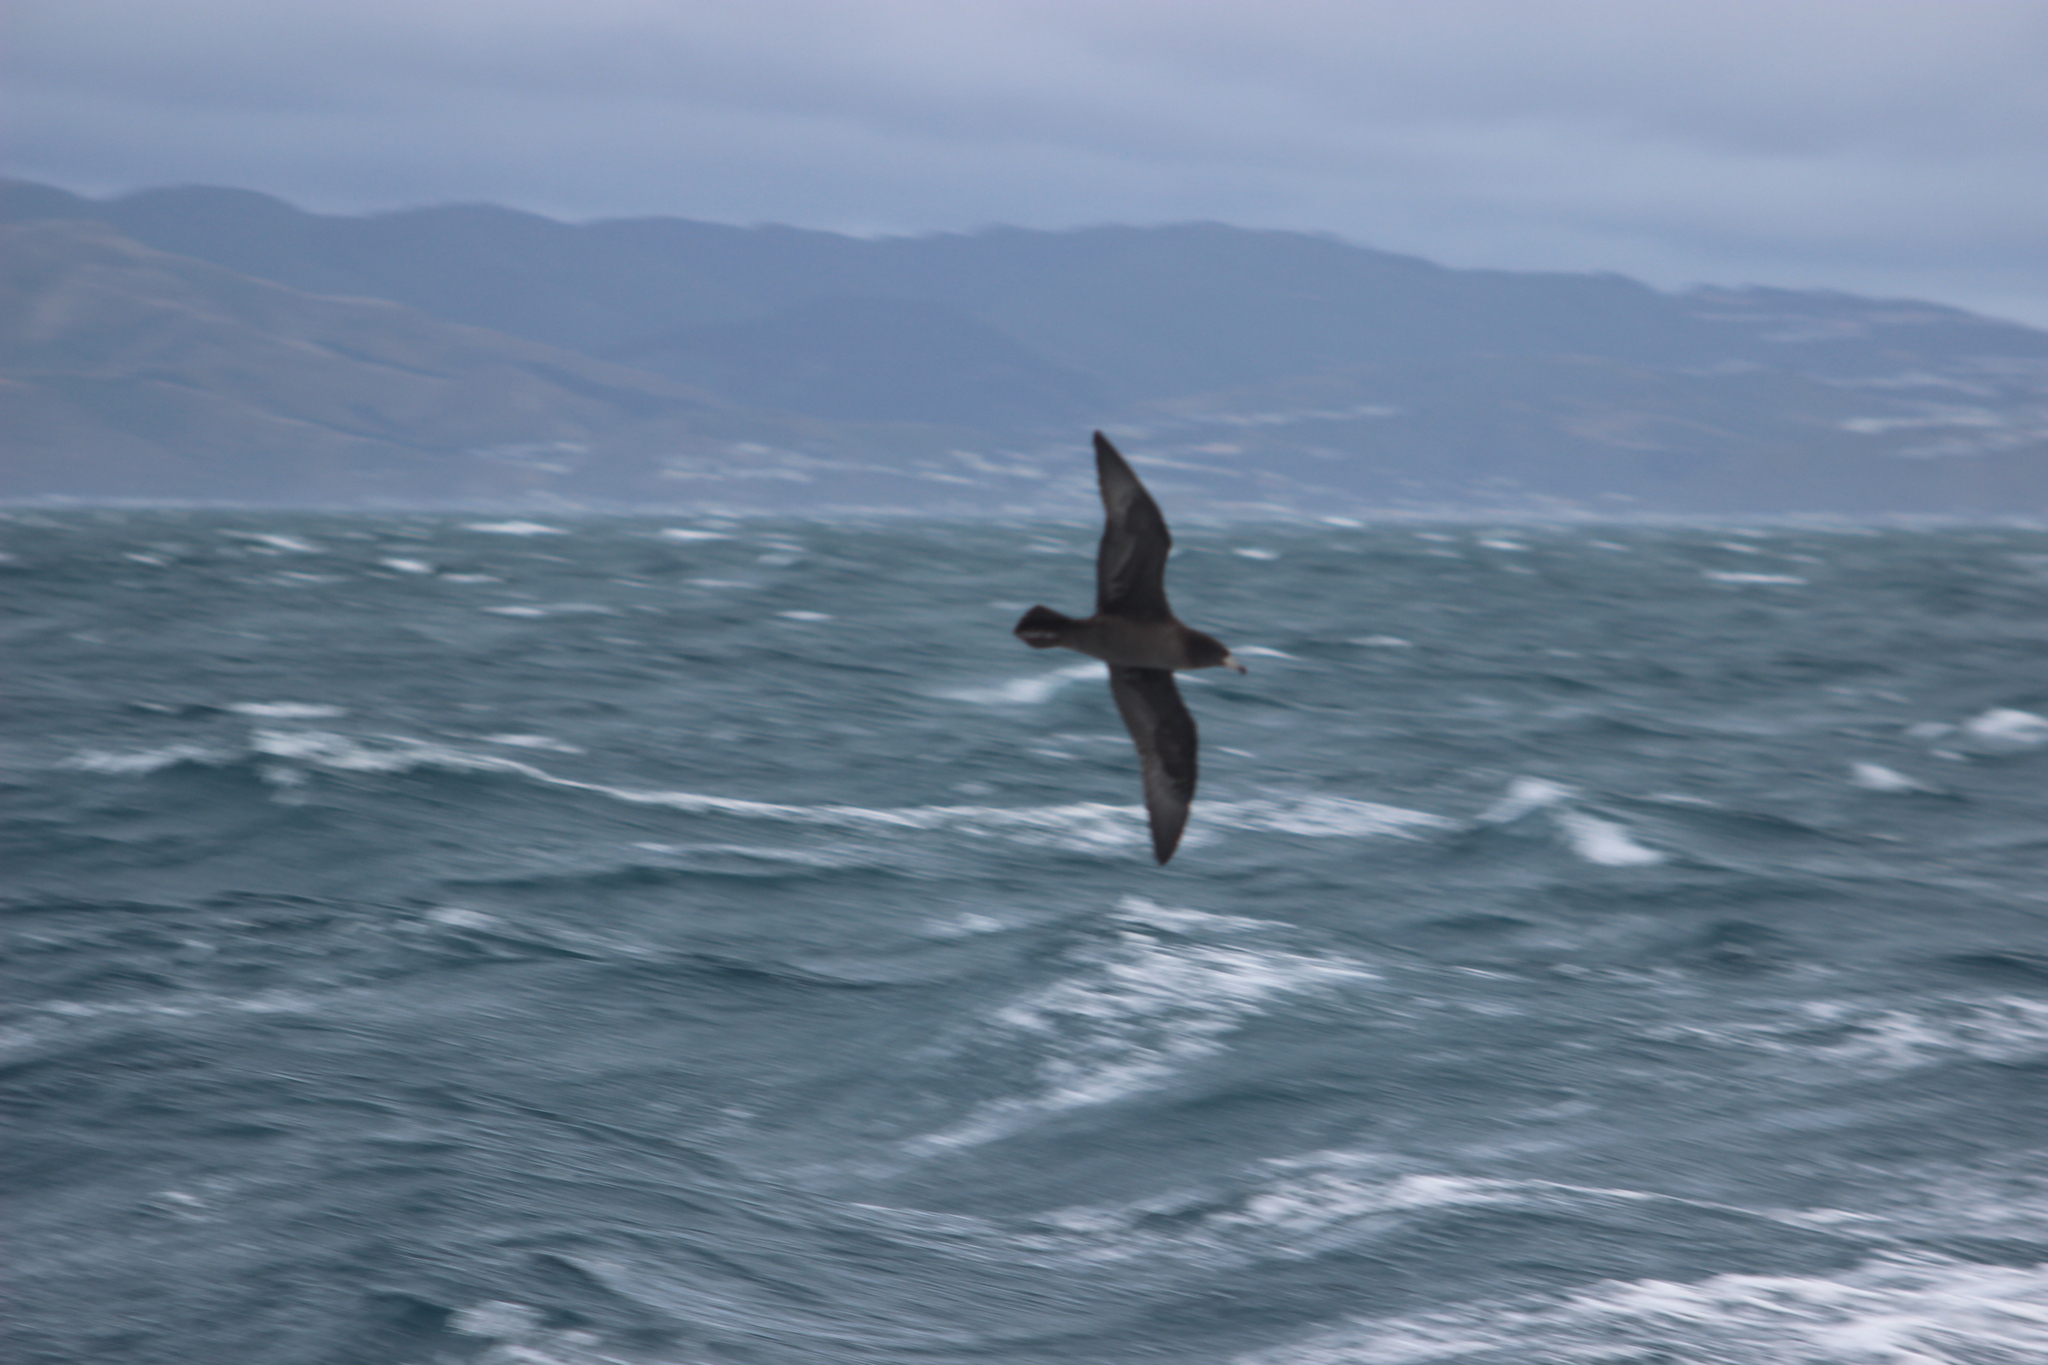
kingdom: Animalia
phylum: Chordata
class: Aves
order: Procellariiformes
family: Procellariidae
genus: Procellaria
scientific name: Procellaria westlandica
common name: Westland petrel
